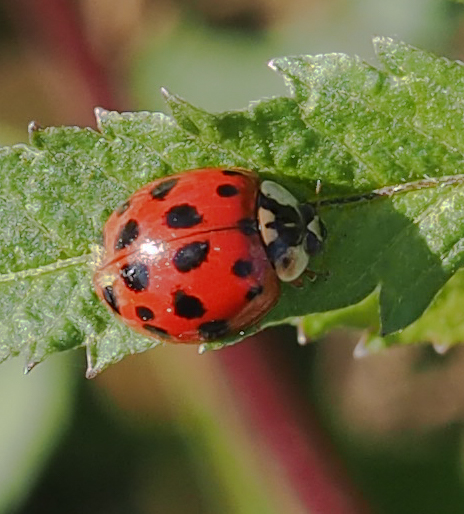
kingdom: Animalia
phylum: Arthropoda
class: Insecta
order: Coleoptera
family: Coccinellidae
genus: Harmonia
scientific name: Harmonia axyridis
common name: Harlequin ladybird
